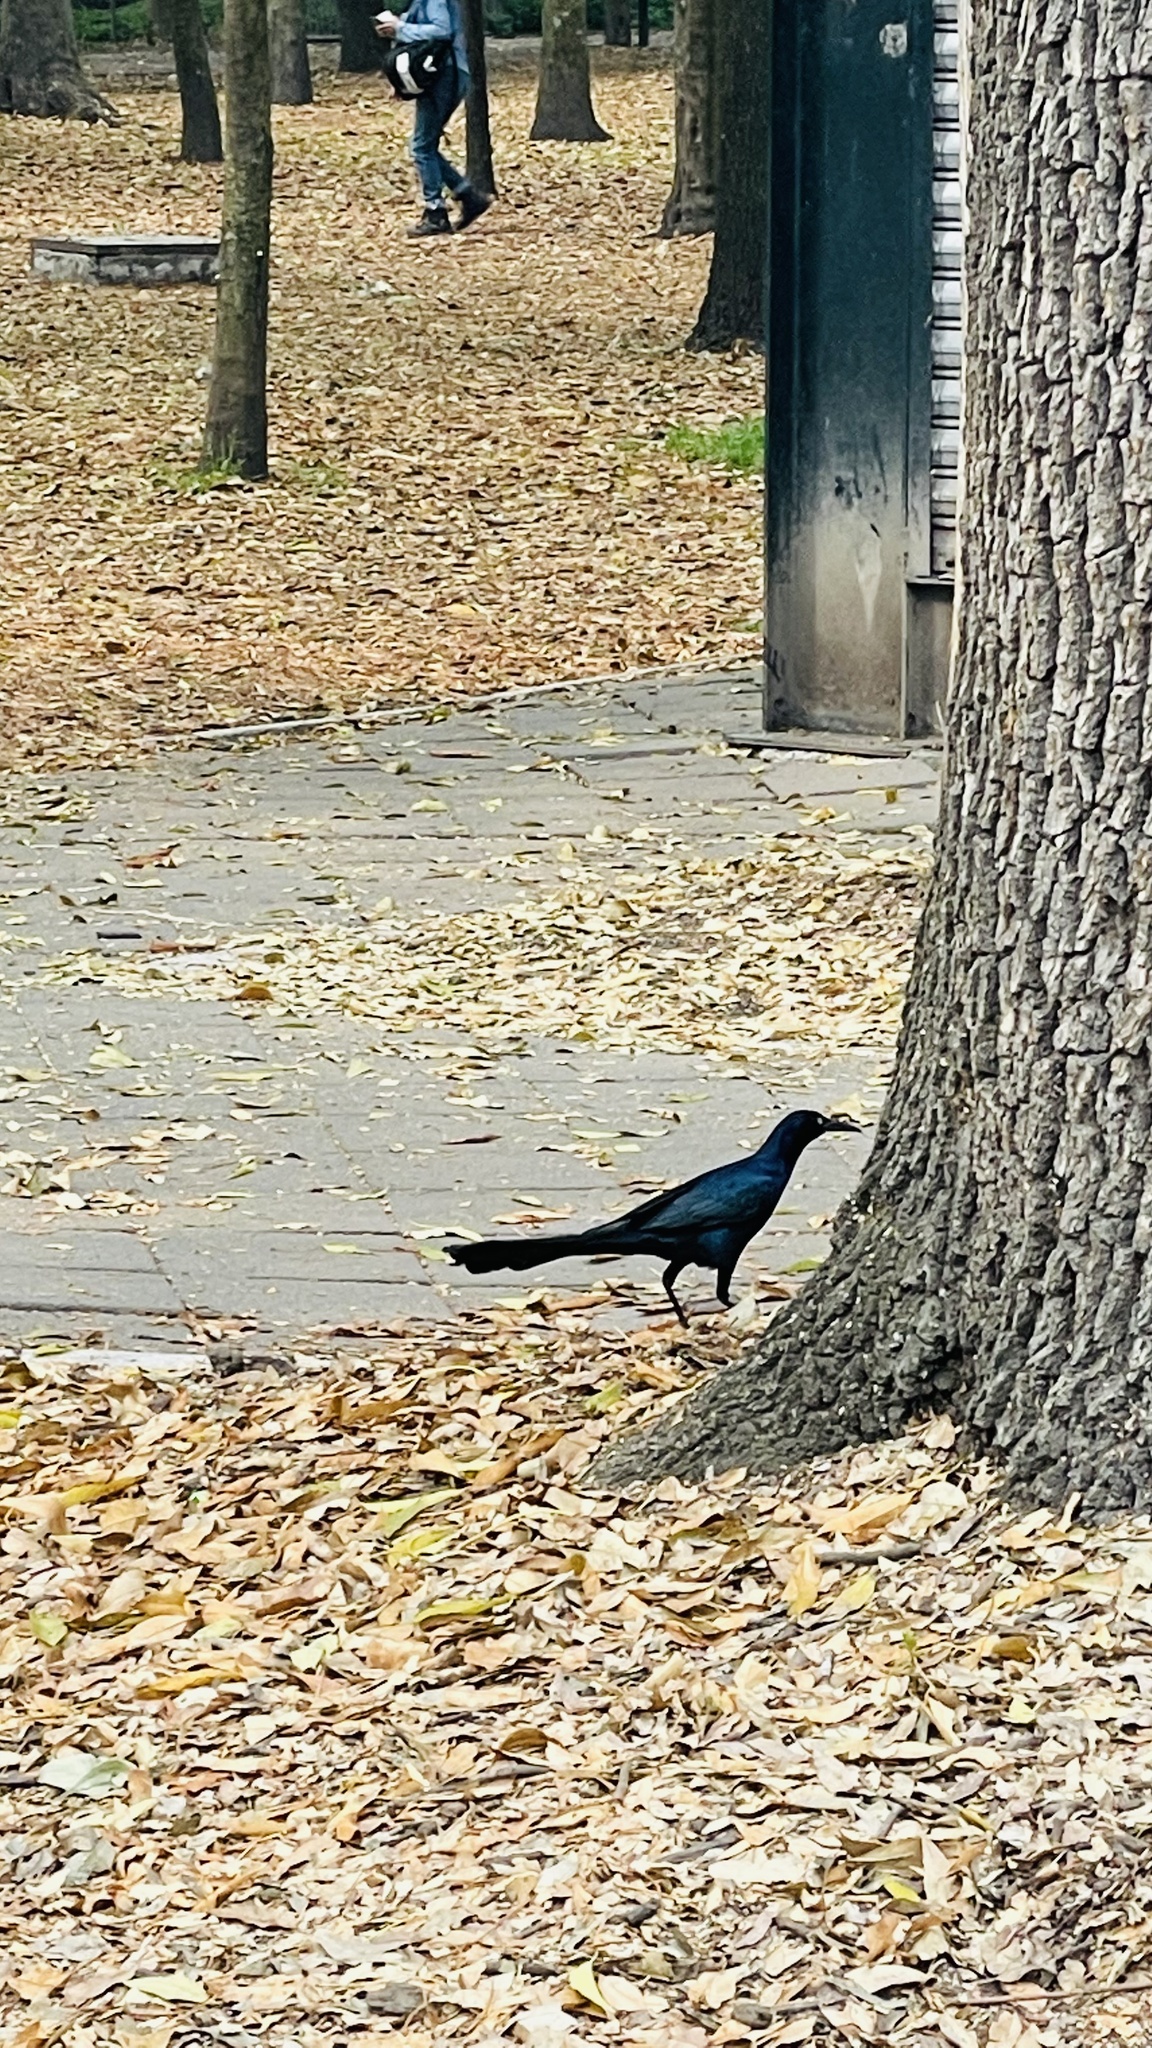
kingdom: Animalia
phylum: Chordata
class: Aves
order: Passeriformes
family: Icteridae
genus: Quiscalus
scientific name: Quiscalus mexicanus
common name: Great-tailed grackle
